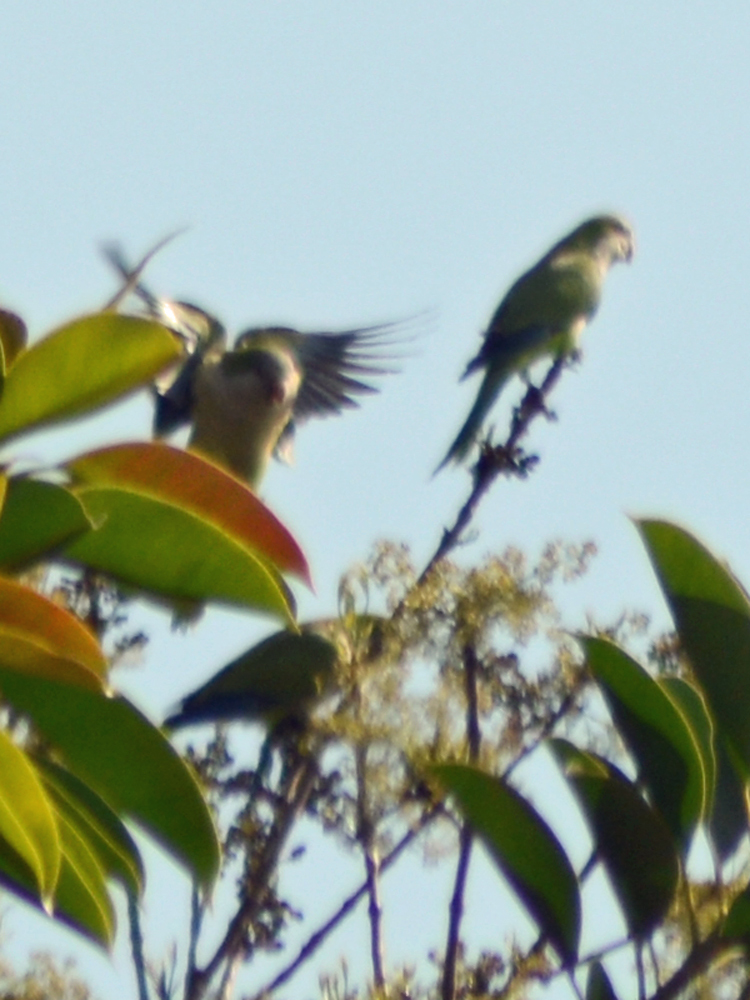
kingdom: Animalia
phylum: Chordata
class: Aves
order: Psittaciformes
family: Psittacidae
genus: Myiopsitta
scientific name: Myiopsitta monachus
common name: Monk parakeet
